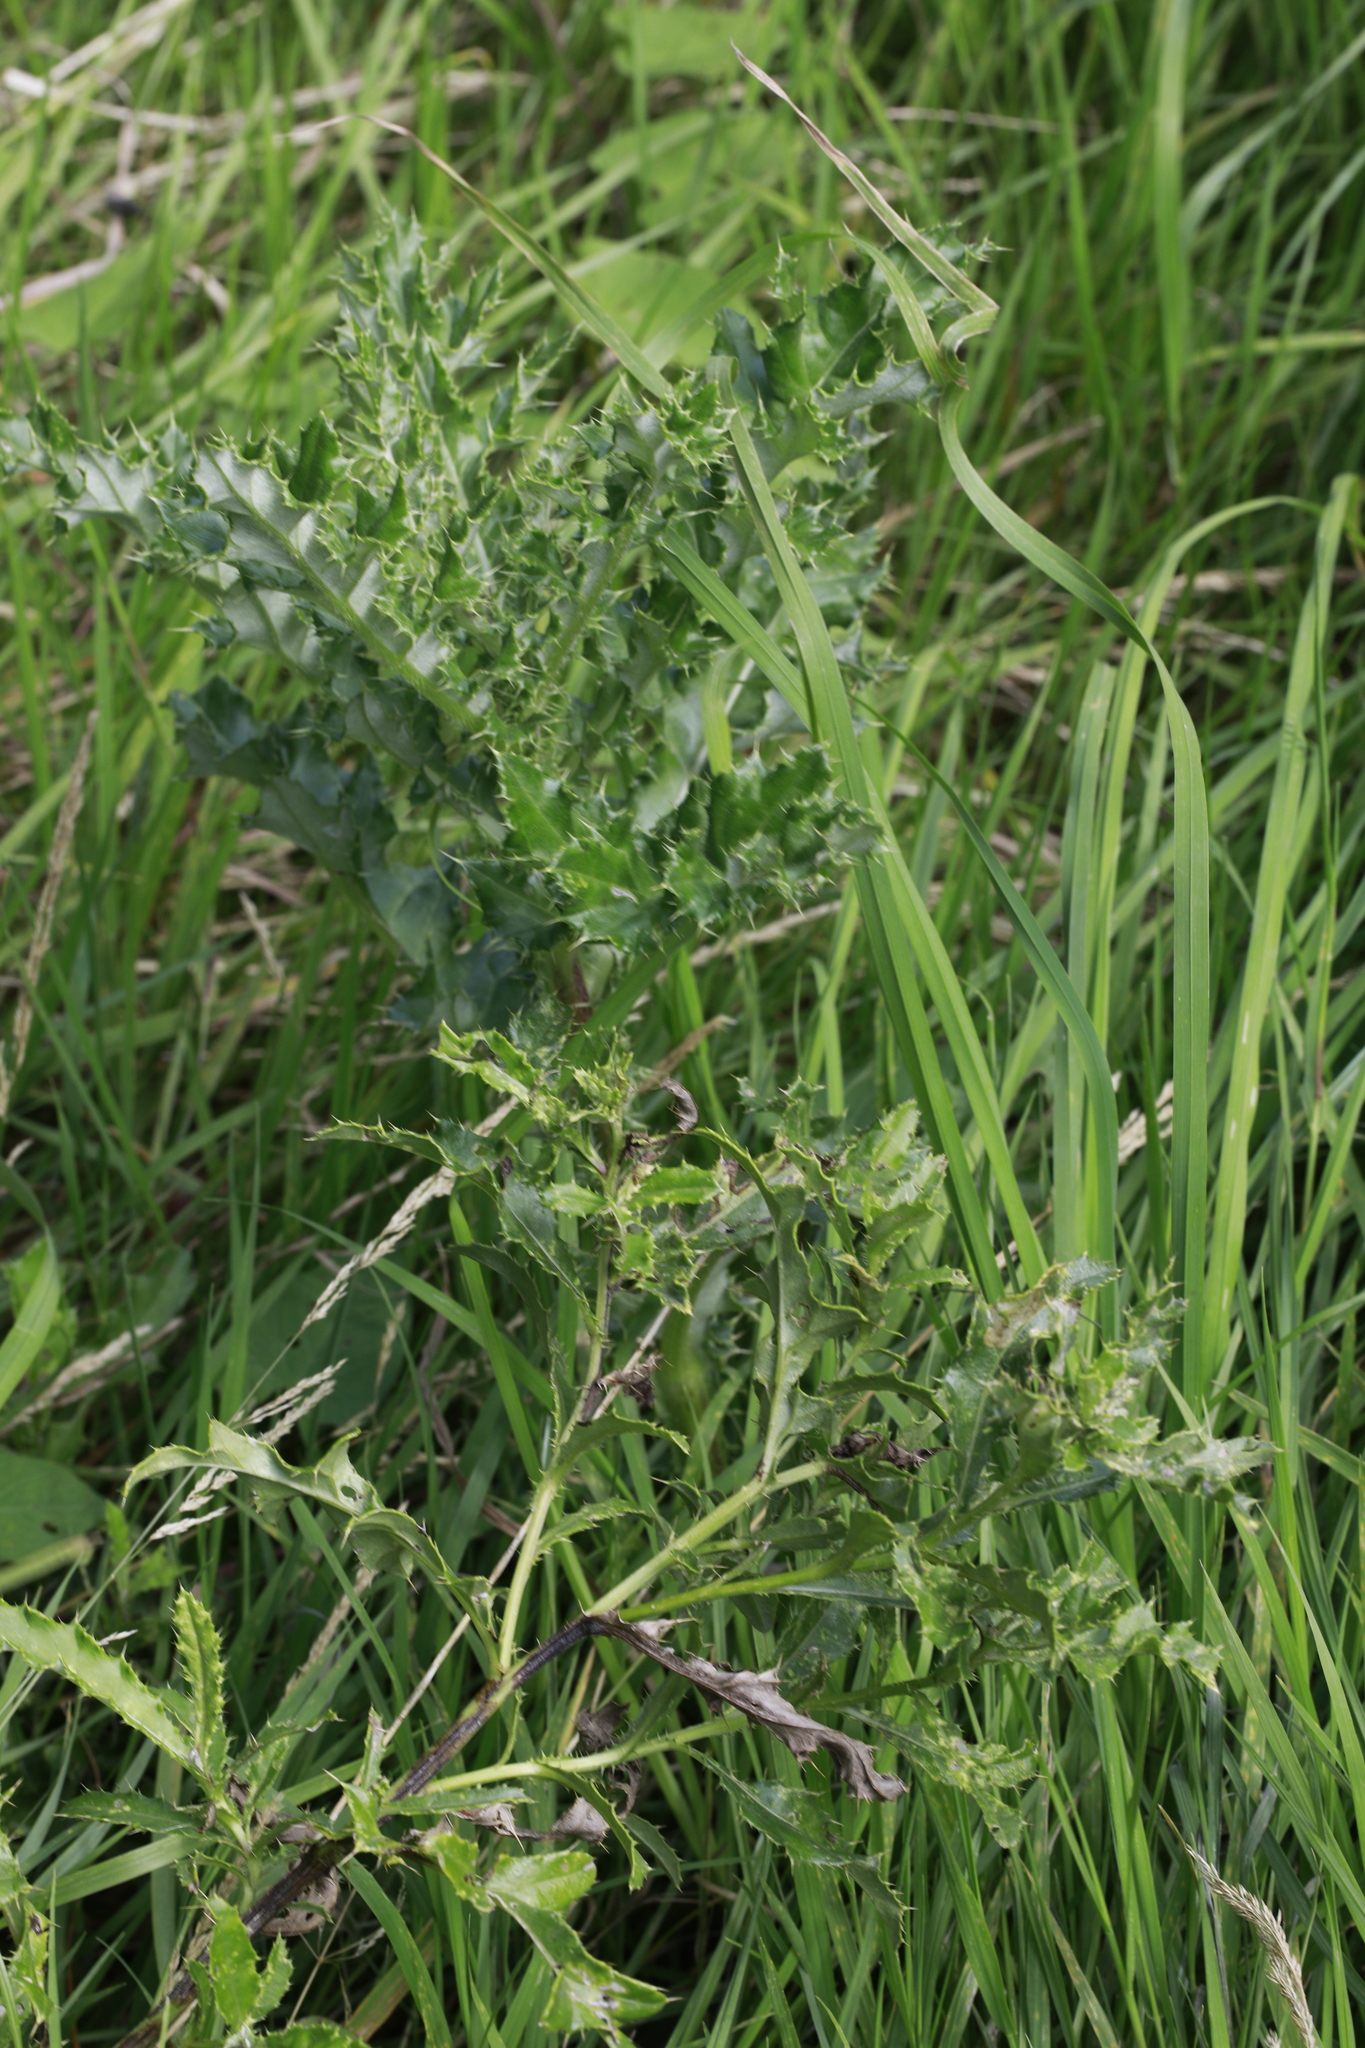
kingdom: Plantae
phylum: Tracheophyta
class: Magnoliopsida
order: Asterales
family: Asteraceae
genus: Cirsium
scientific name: Cirsium arvense
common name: Creeping thistle
